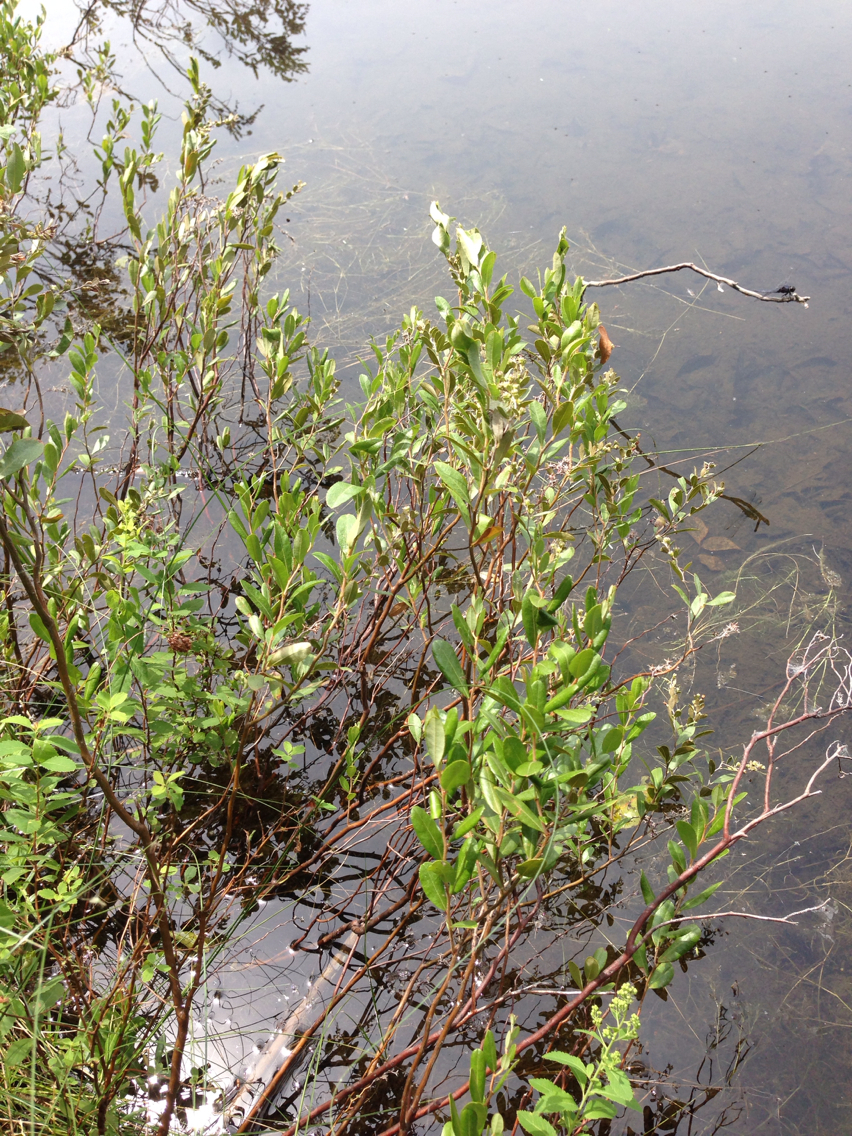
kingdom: Plantae
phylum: Tracheophyta
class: Magnoliopsida
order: Ericales
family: Ericaceae
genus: Chamaedaphne
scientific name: Chamaedaphne calyculata
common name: Leatherleaf
